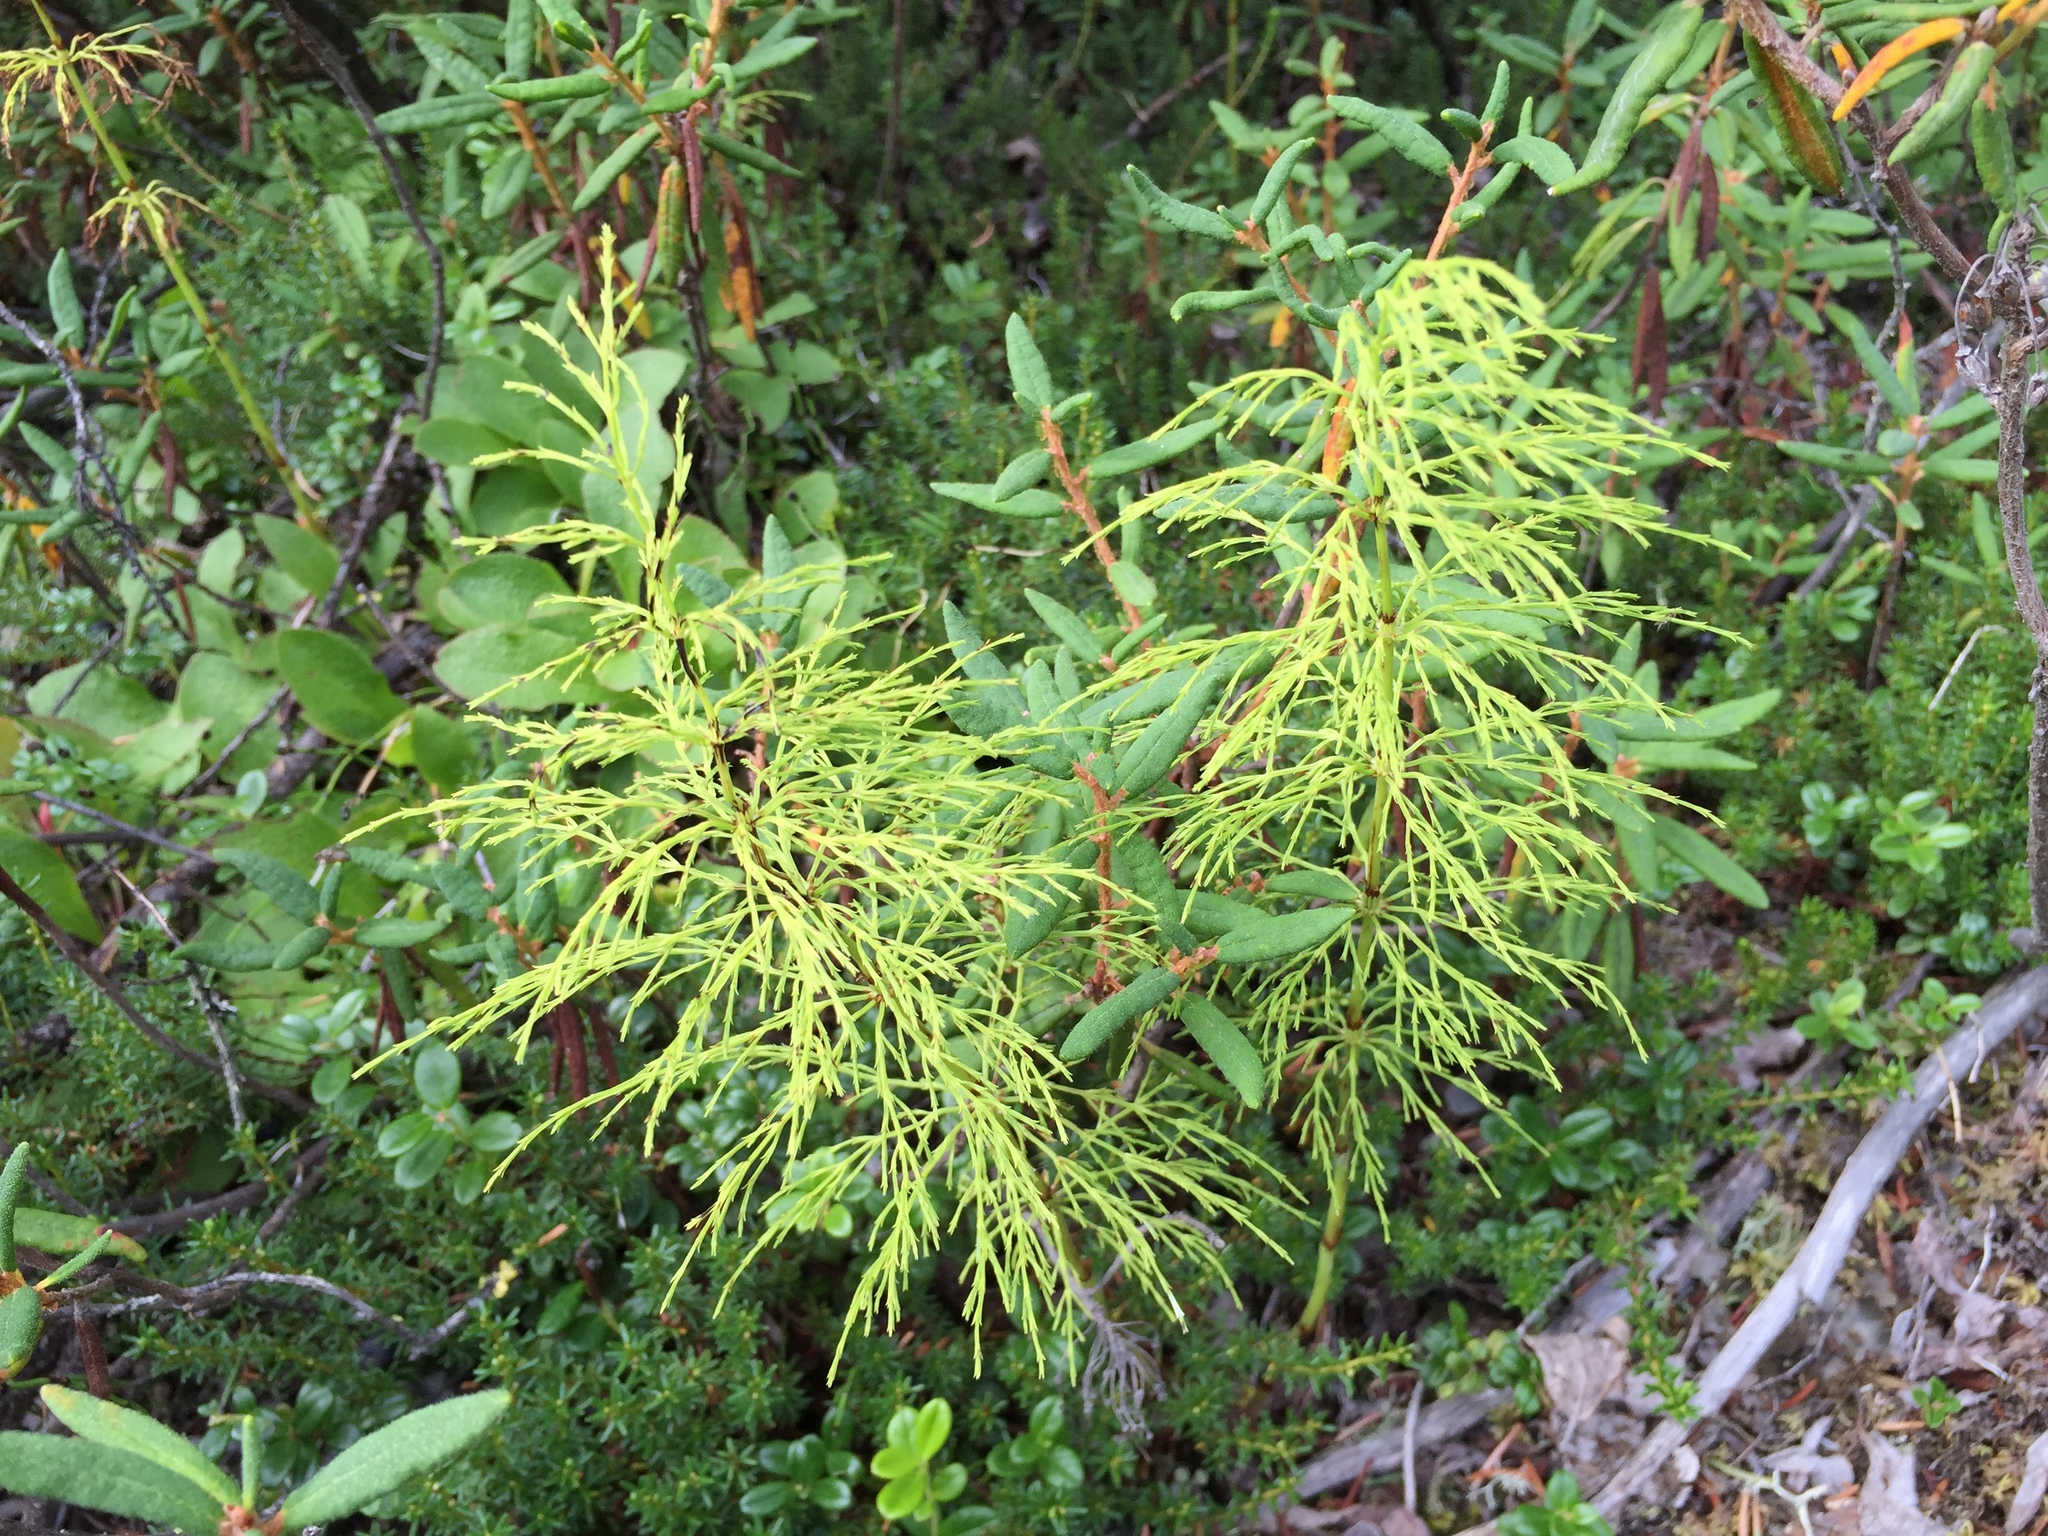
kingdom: Plantae
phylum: Tracheophyta
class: Polypodiopsida
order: Equisetales
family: Equisetaceae
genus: Equisetum
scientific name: Equisetum sylvaticum
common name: Wood horsetail
